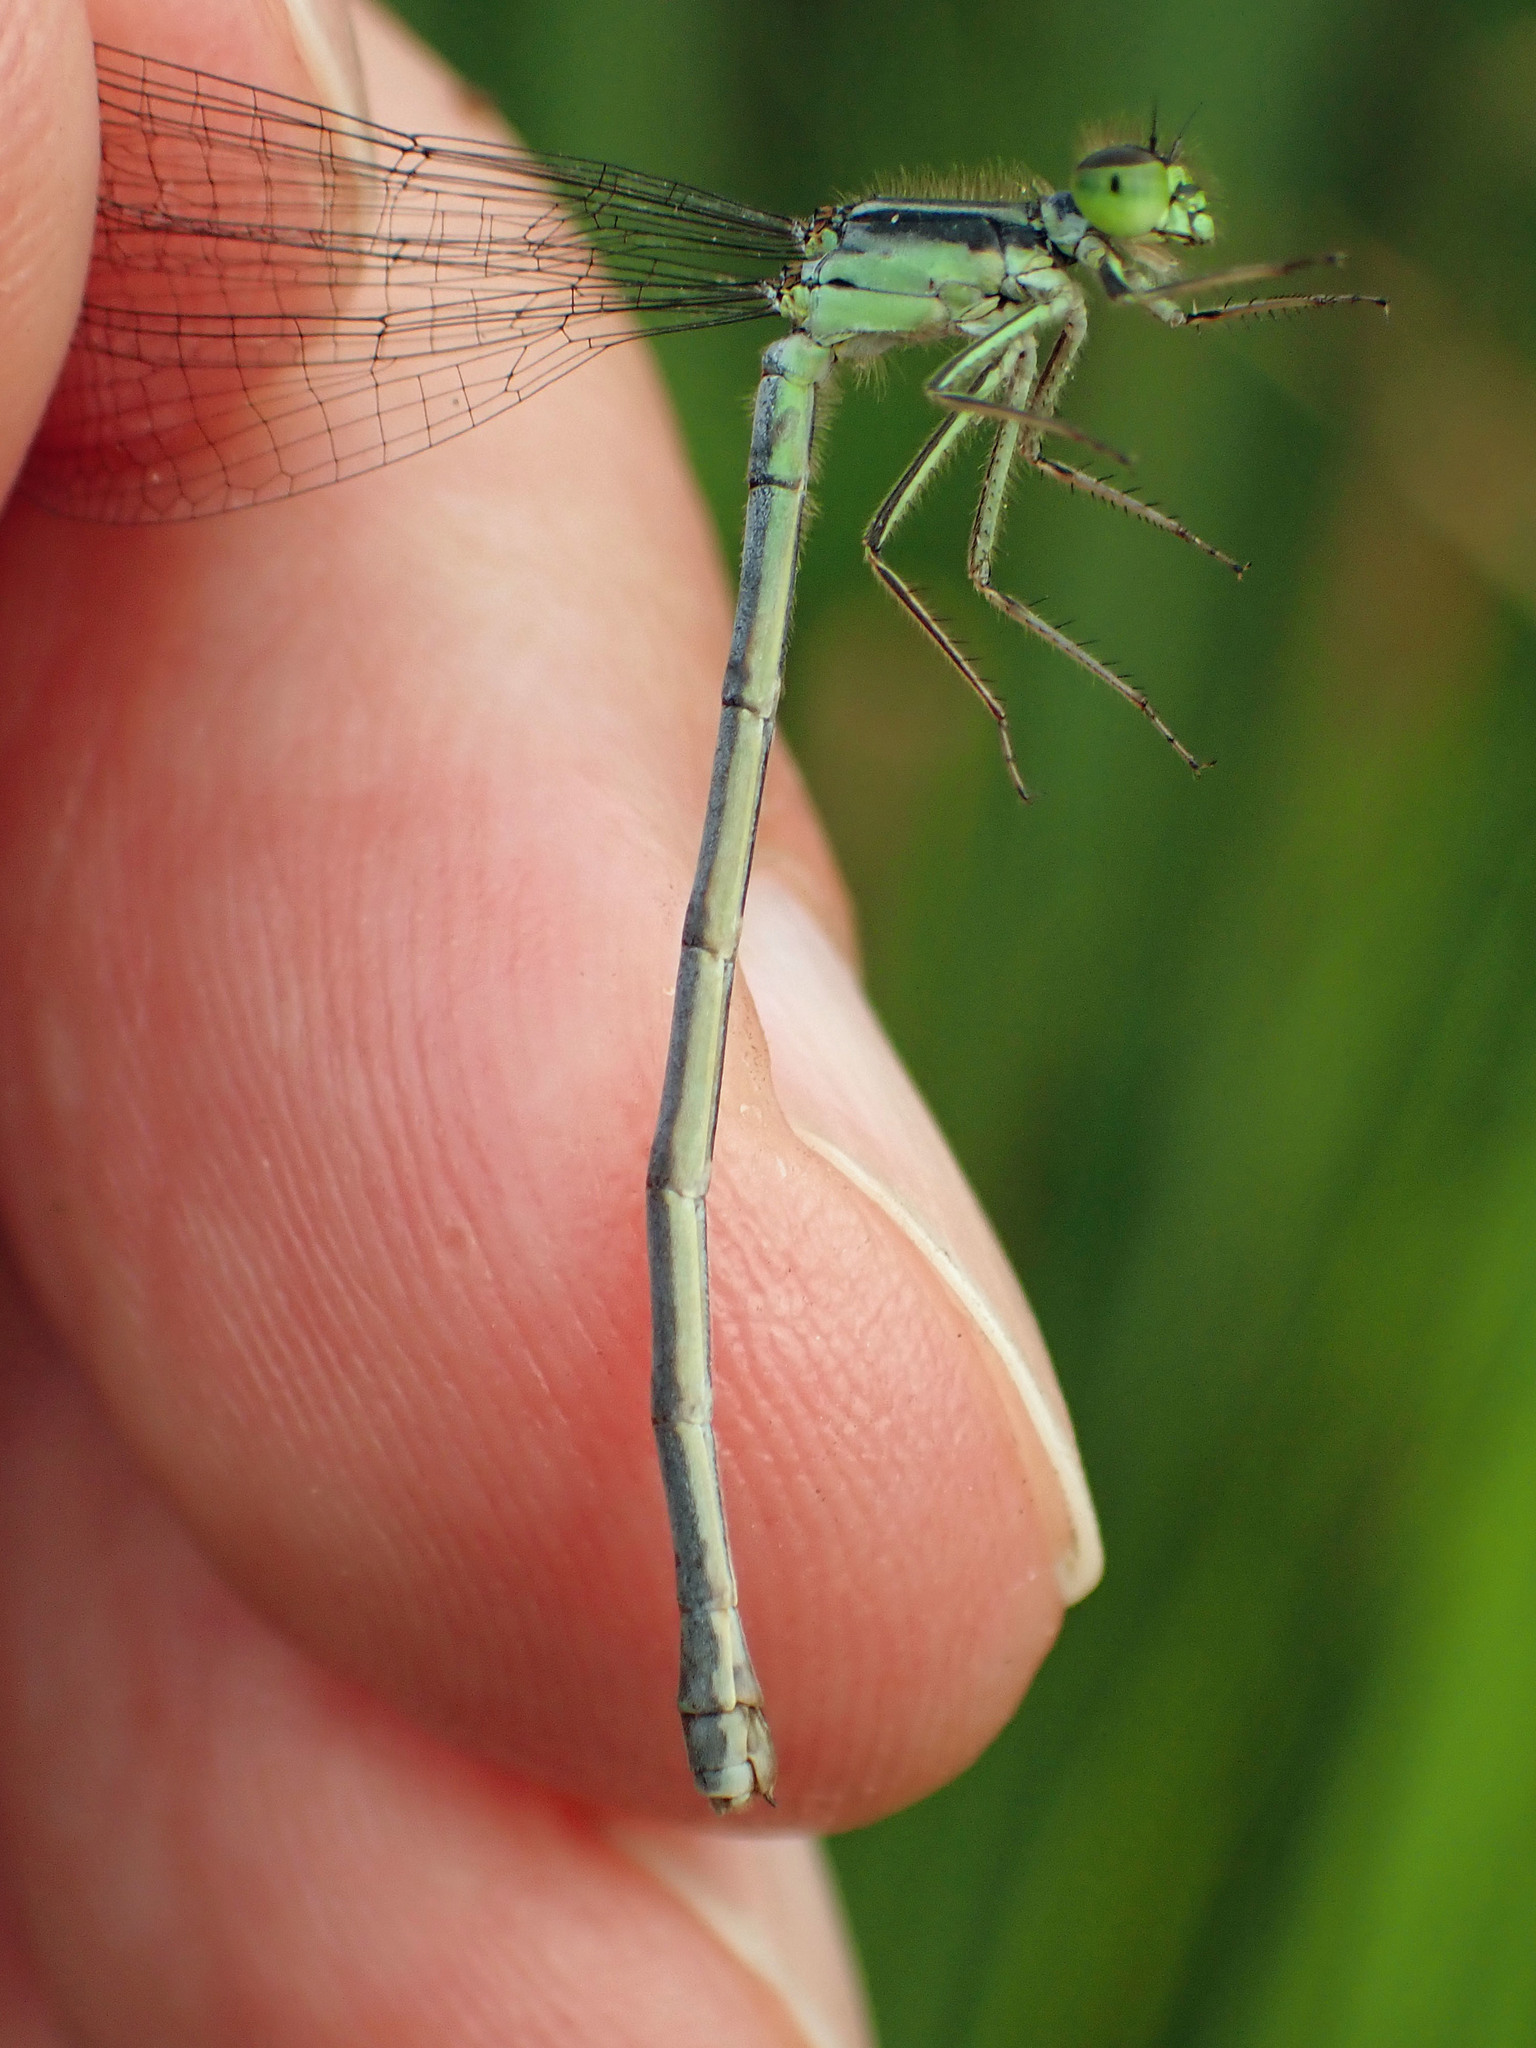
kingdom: Animalia
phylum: Arthropoda
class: Insecta
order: Odonata
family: Coenagrionidae
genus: Ischnura
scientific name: Ischnura verticalis
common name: Eastern forktail
